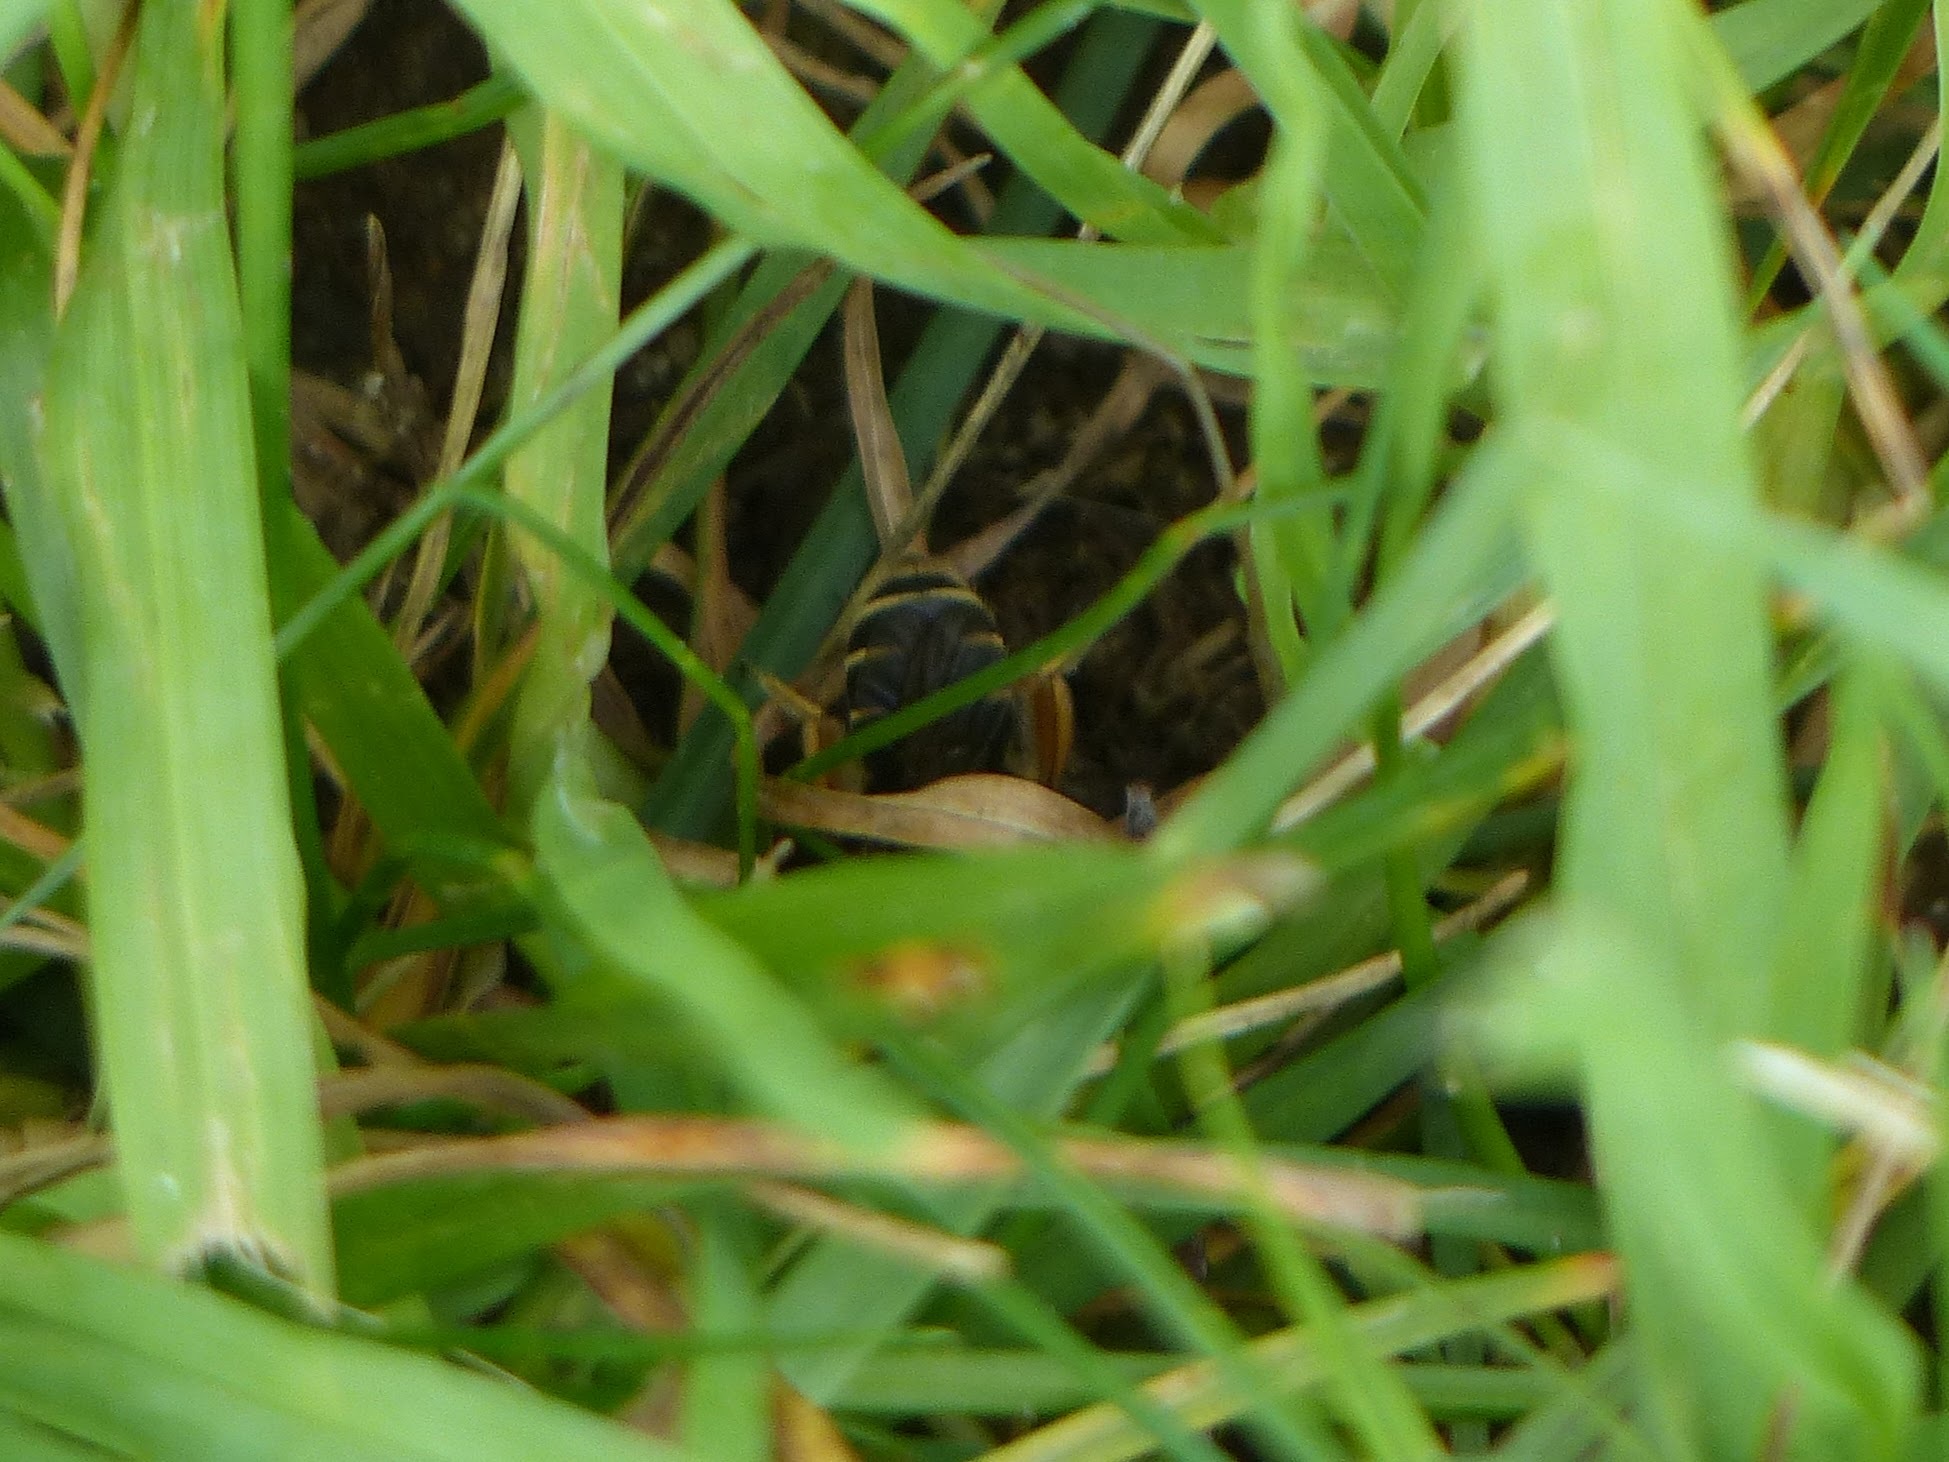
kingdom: Animalia
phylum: Arthropoda
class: Insecta
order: Hymenoptera
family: Andrenidae
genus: Andrena
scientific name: Andrena wilkella
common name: Wilke's mining bee
